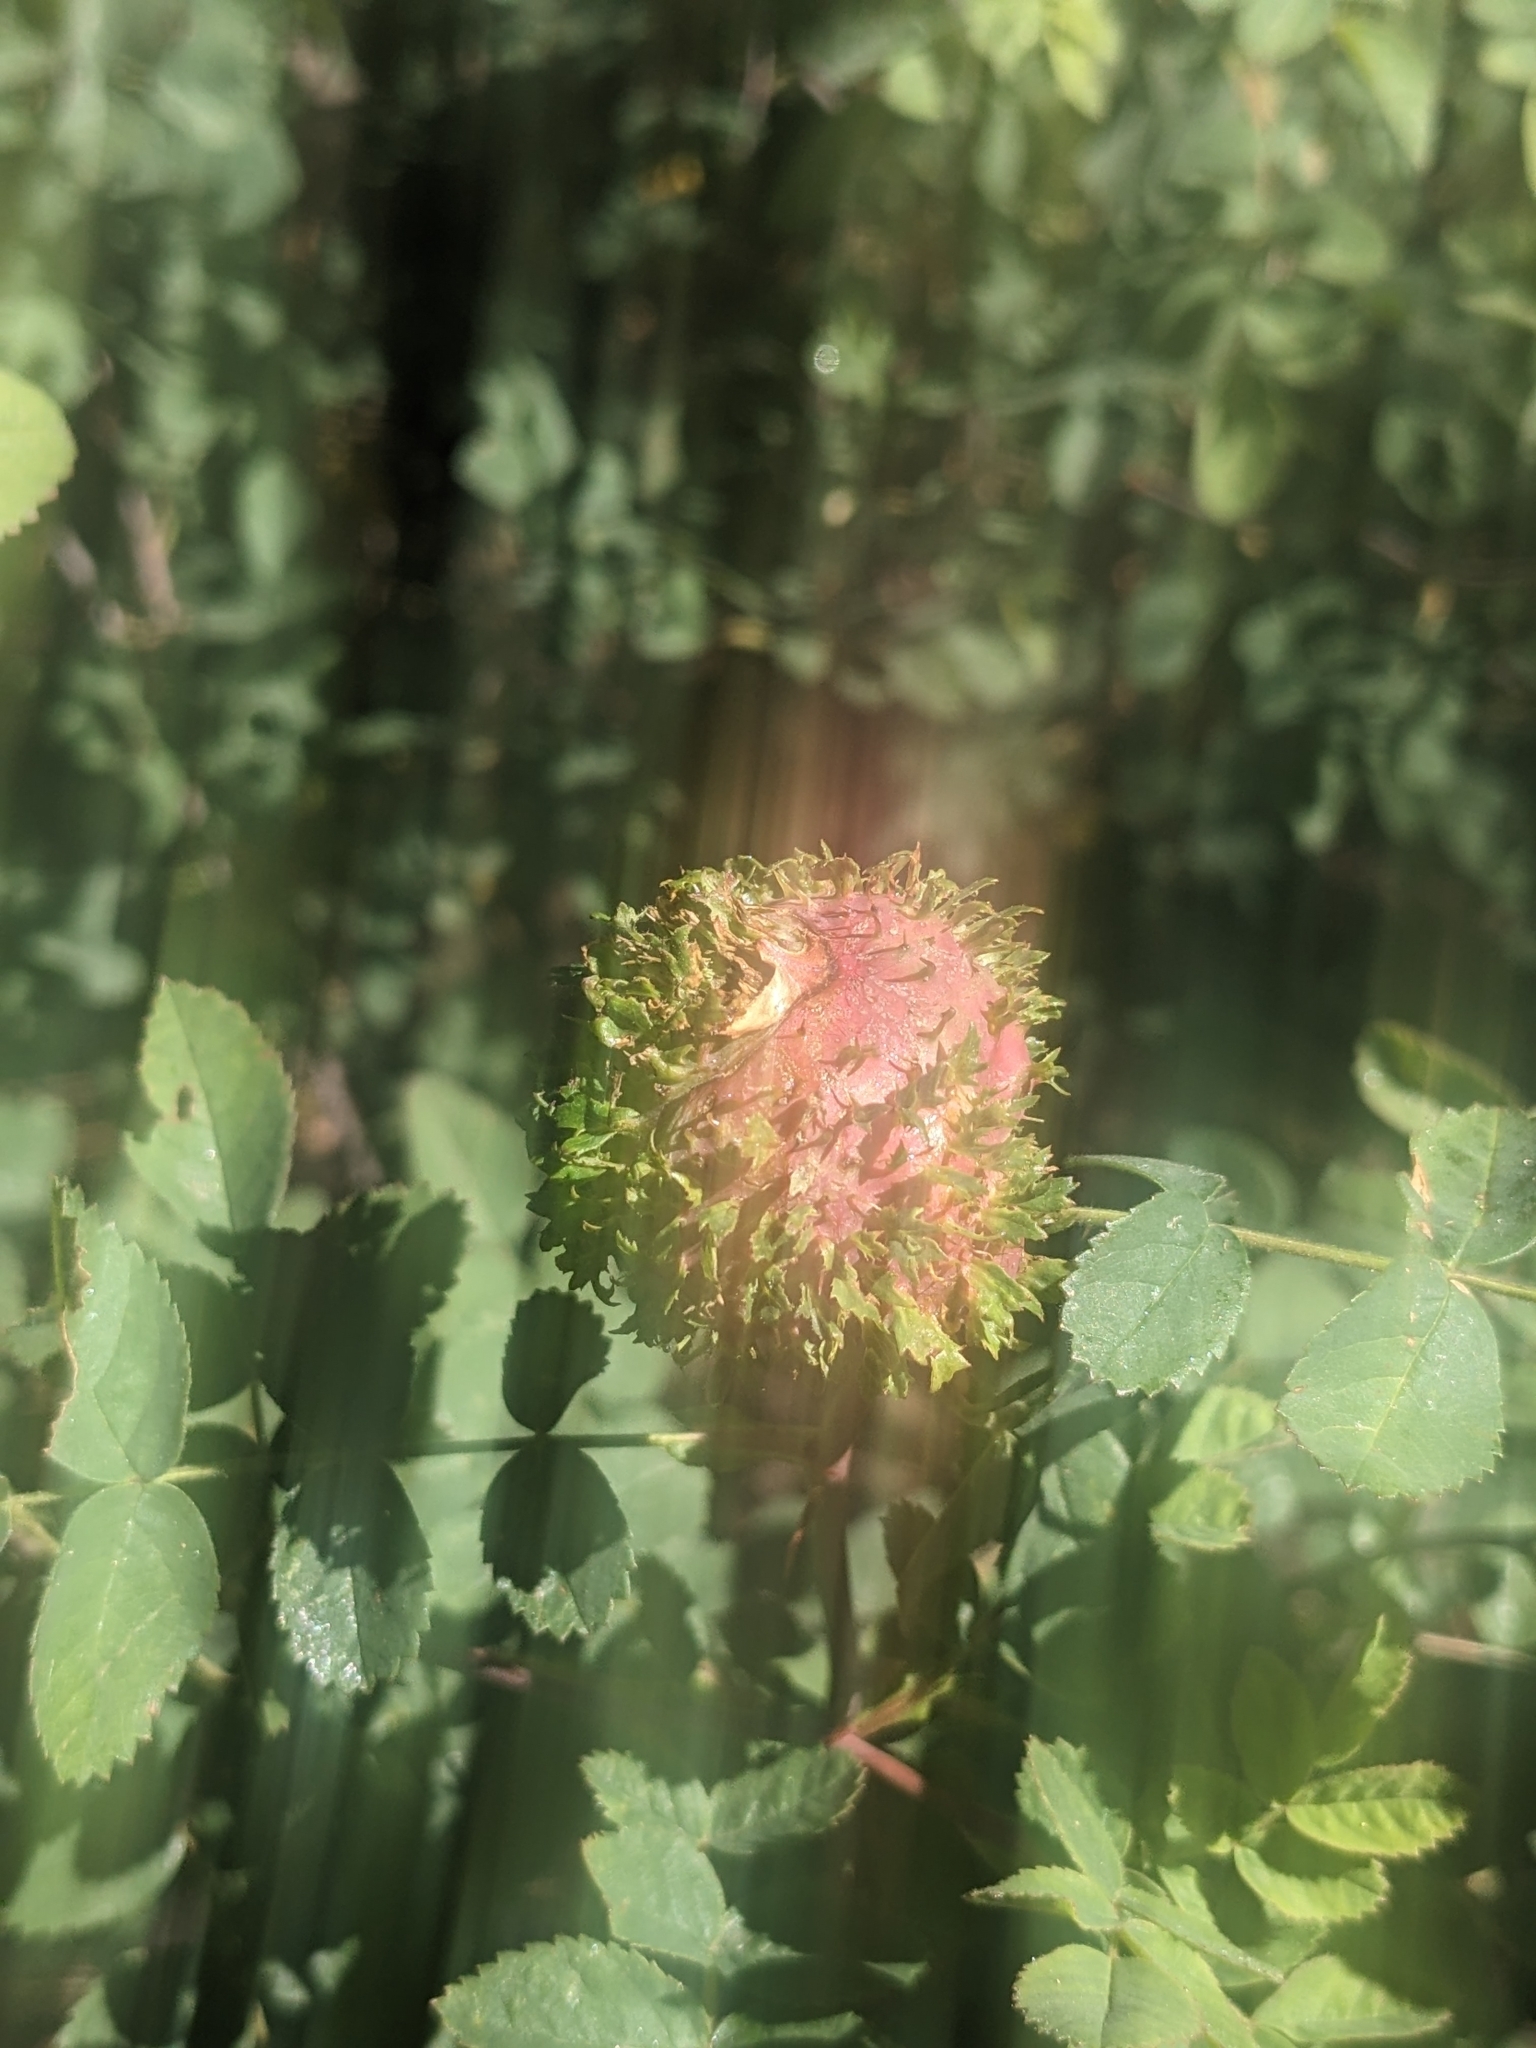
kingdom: Animalia
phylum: Arthropoda
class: Insecta
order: Hymenoptera
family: Cynipidae
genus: Diplolepis
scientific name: Diplolepis californica
